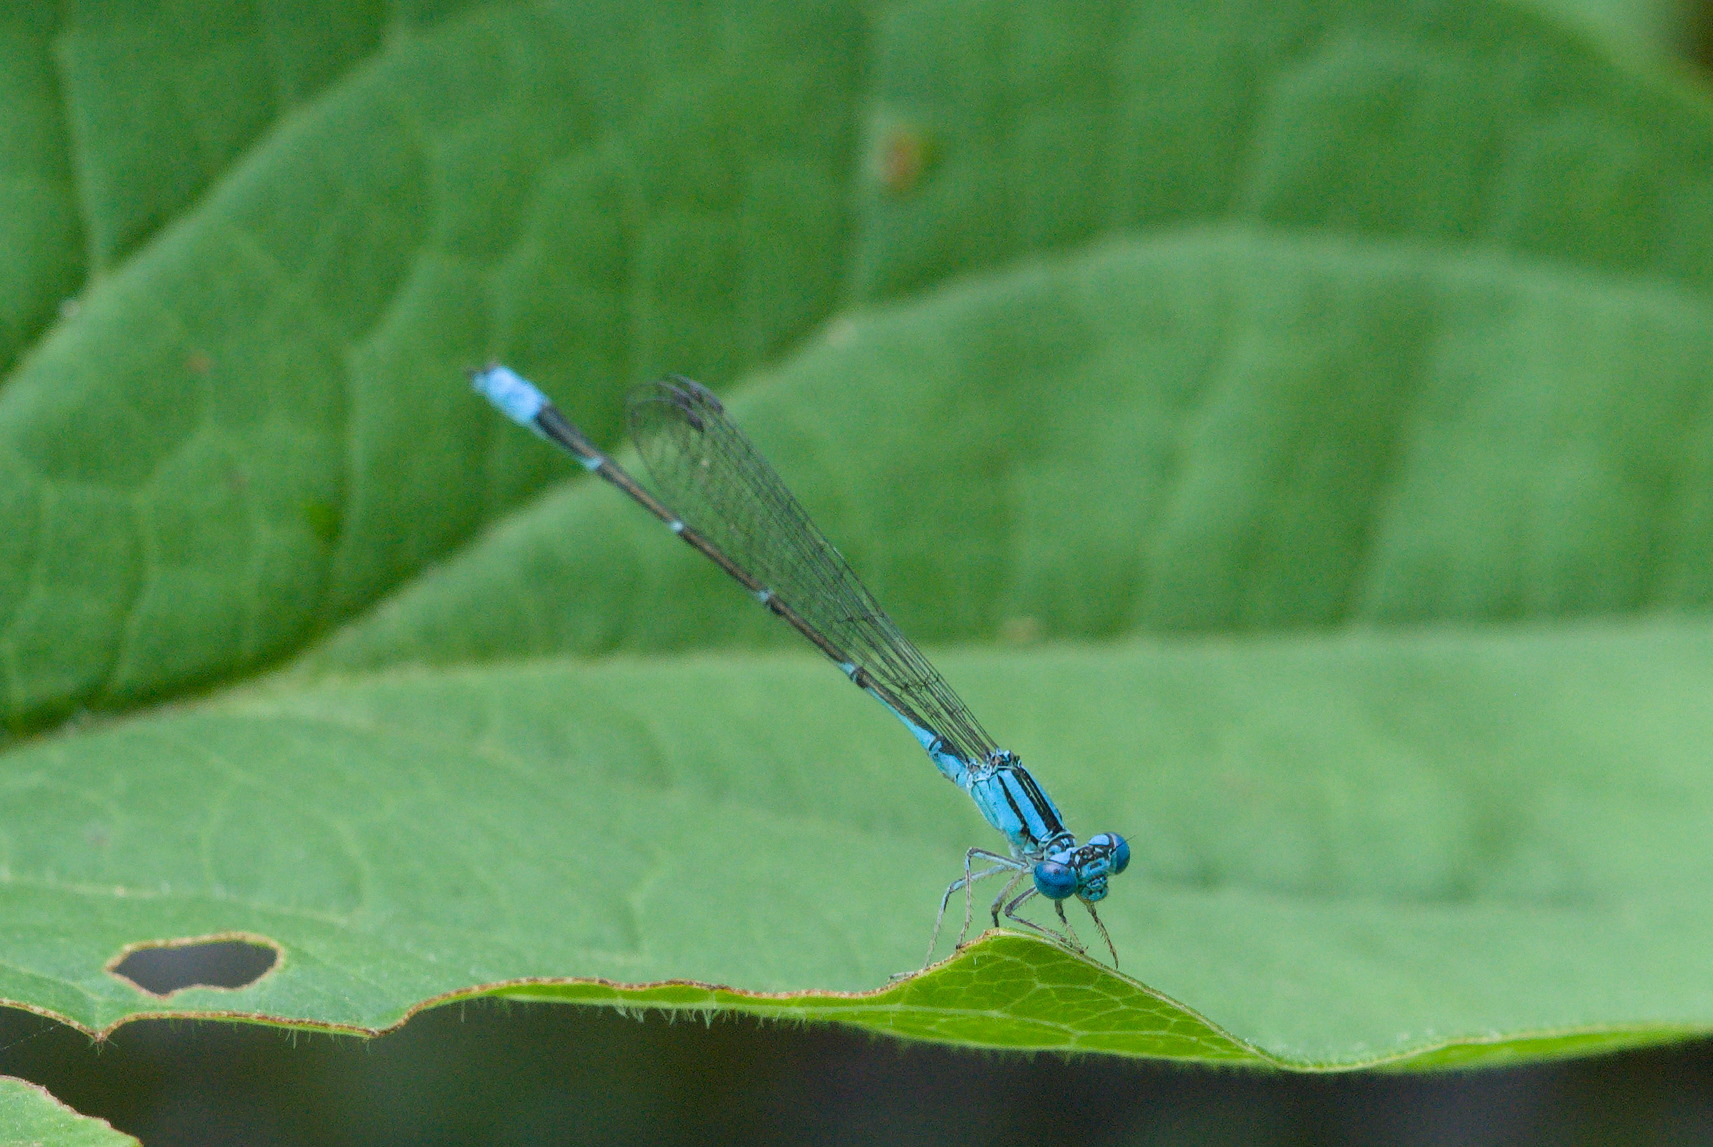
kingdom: Animalia
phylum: Arthropoda
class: Insecta
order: Odonata
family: Coenagrionidae
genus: Enallagma
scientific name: Enallagma traviatum
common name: Slender bluet
